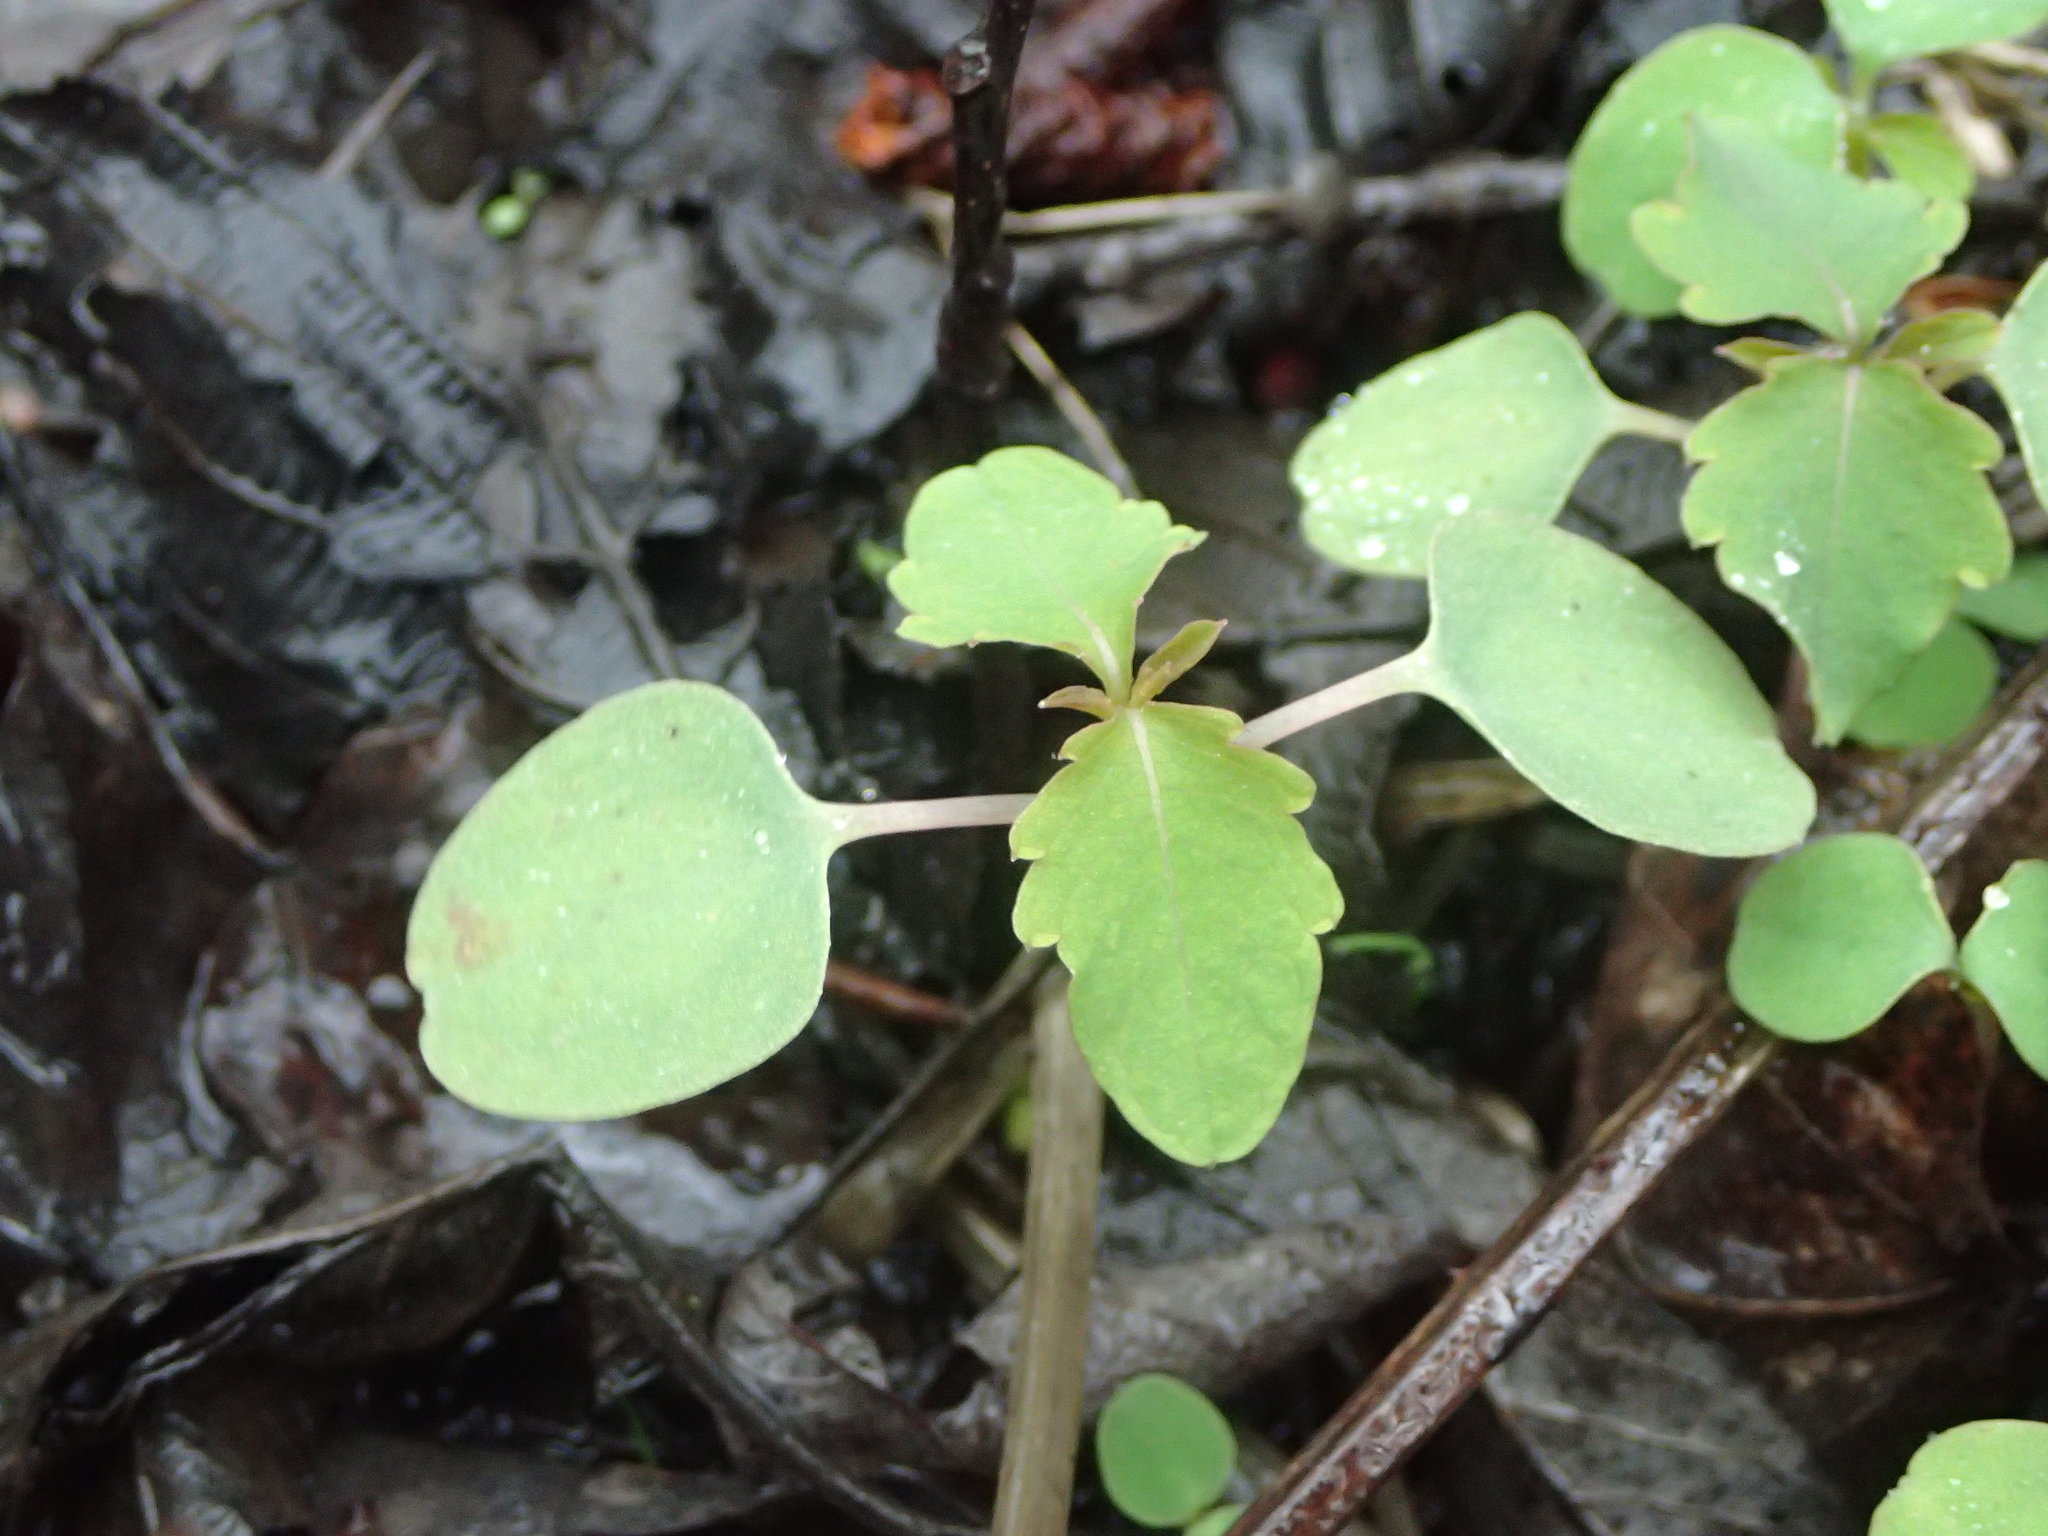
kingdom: Plantae
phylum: Tracheophyta
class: Magnoliopsida
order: Ericales
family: Balsaminaceae
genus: Impatiens
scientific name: Impatiens capensis
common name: Orange balsam
